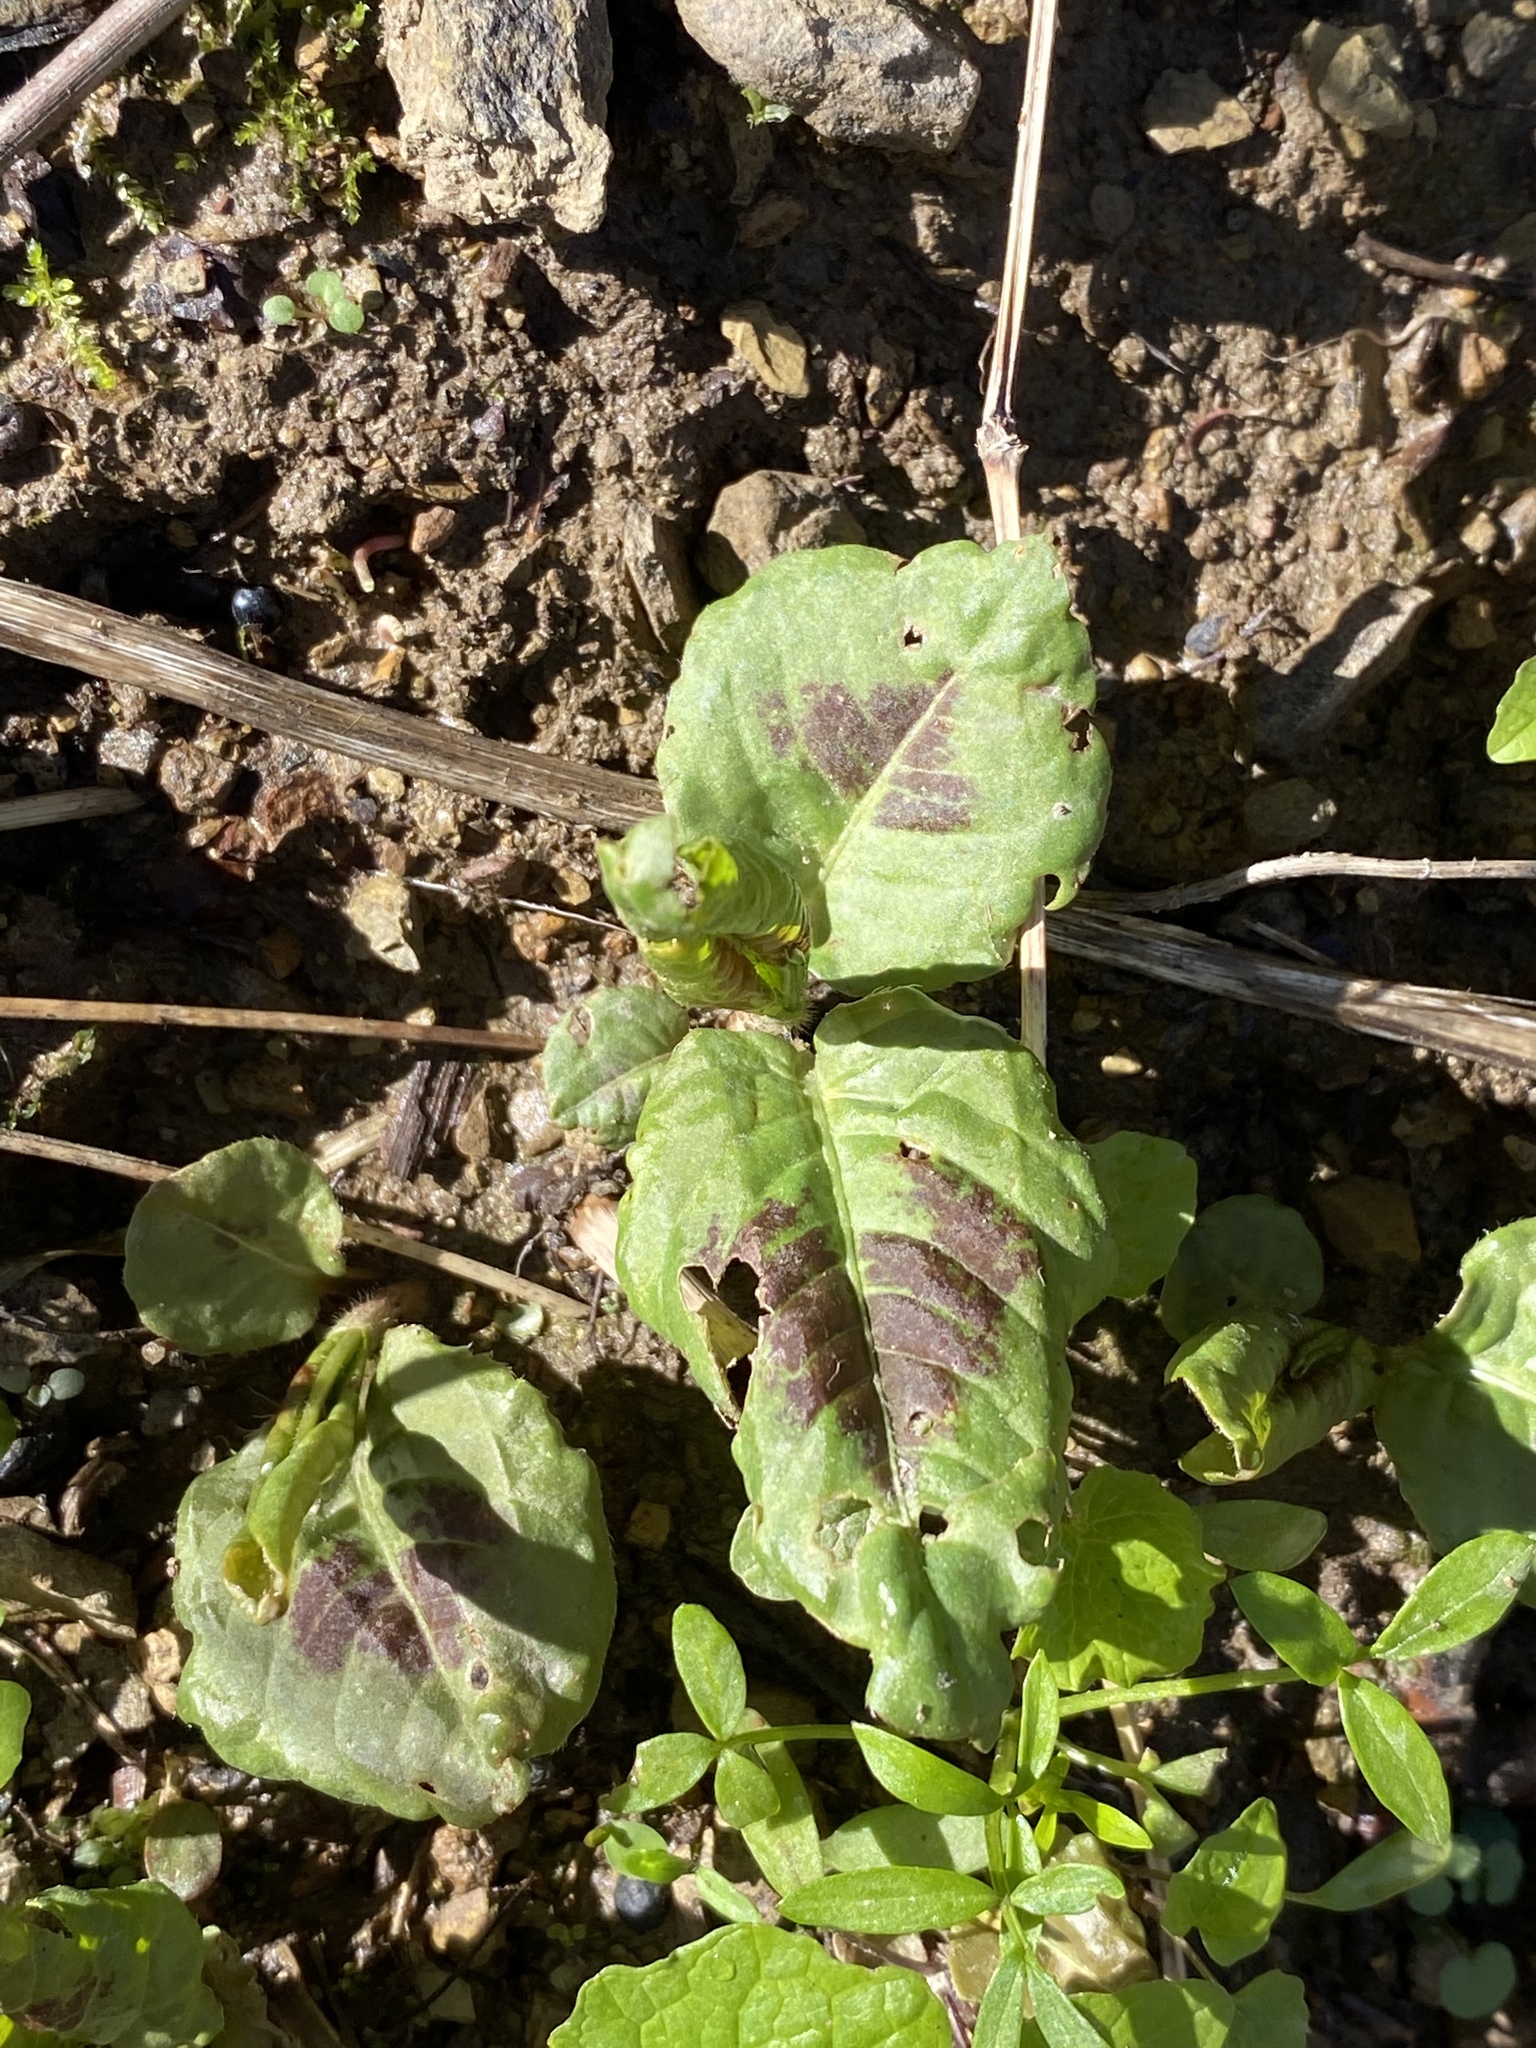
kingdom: Plantae
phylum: Tracheophyta
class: Magnoliopsida
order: Caryophyllales
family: Polygonaceae
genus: Persicaria
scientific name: Persicaria virginiana
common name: Jumpseed
